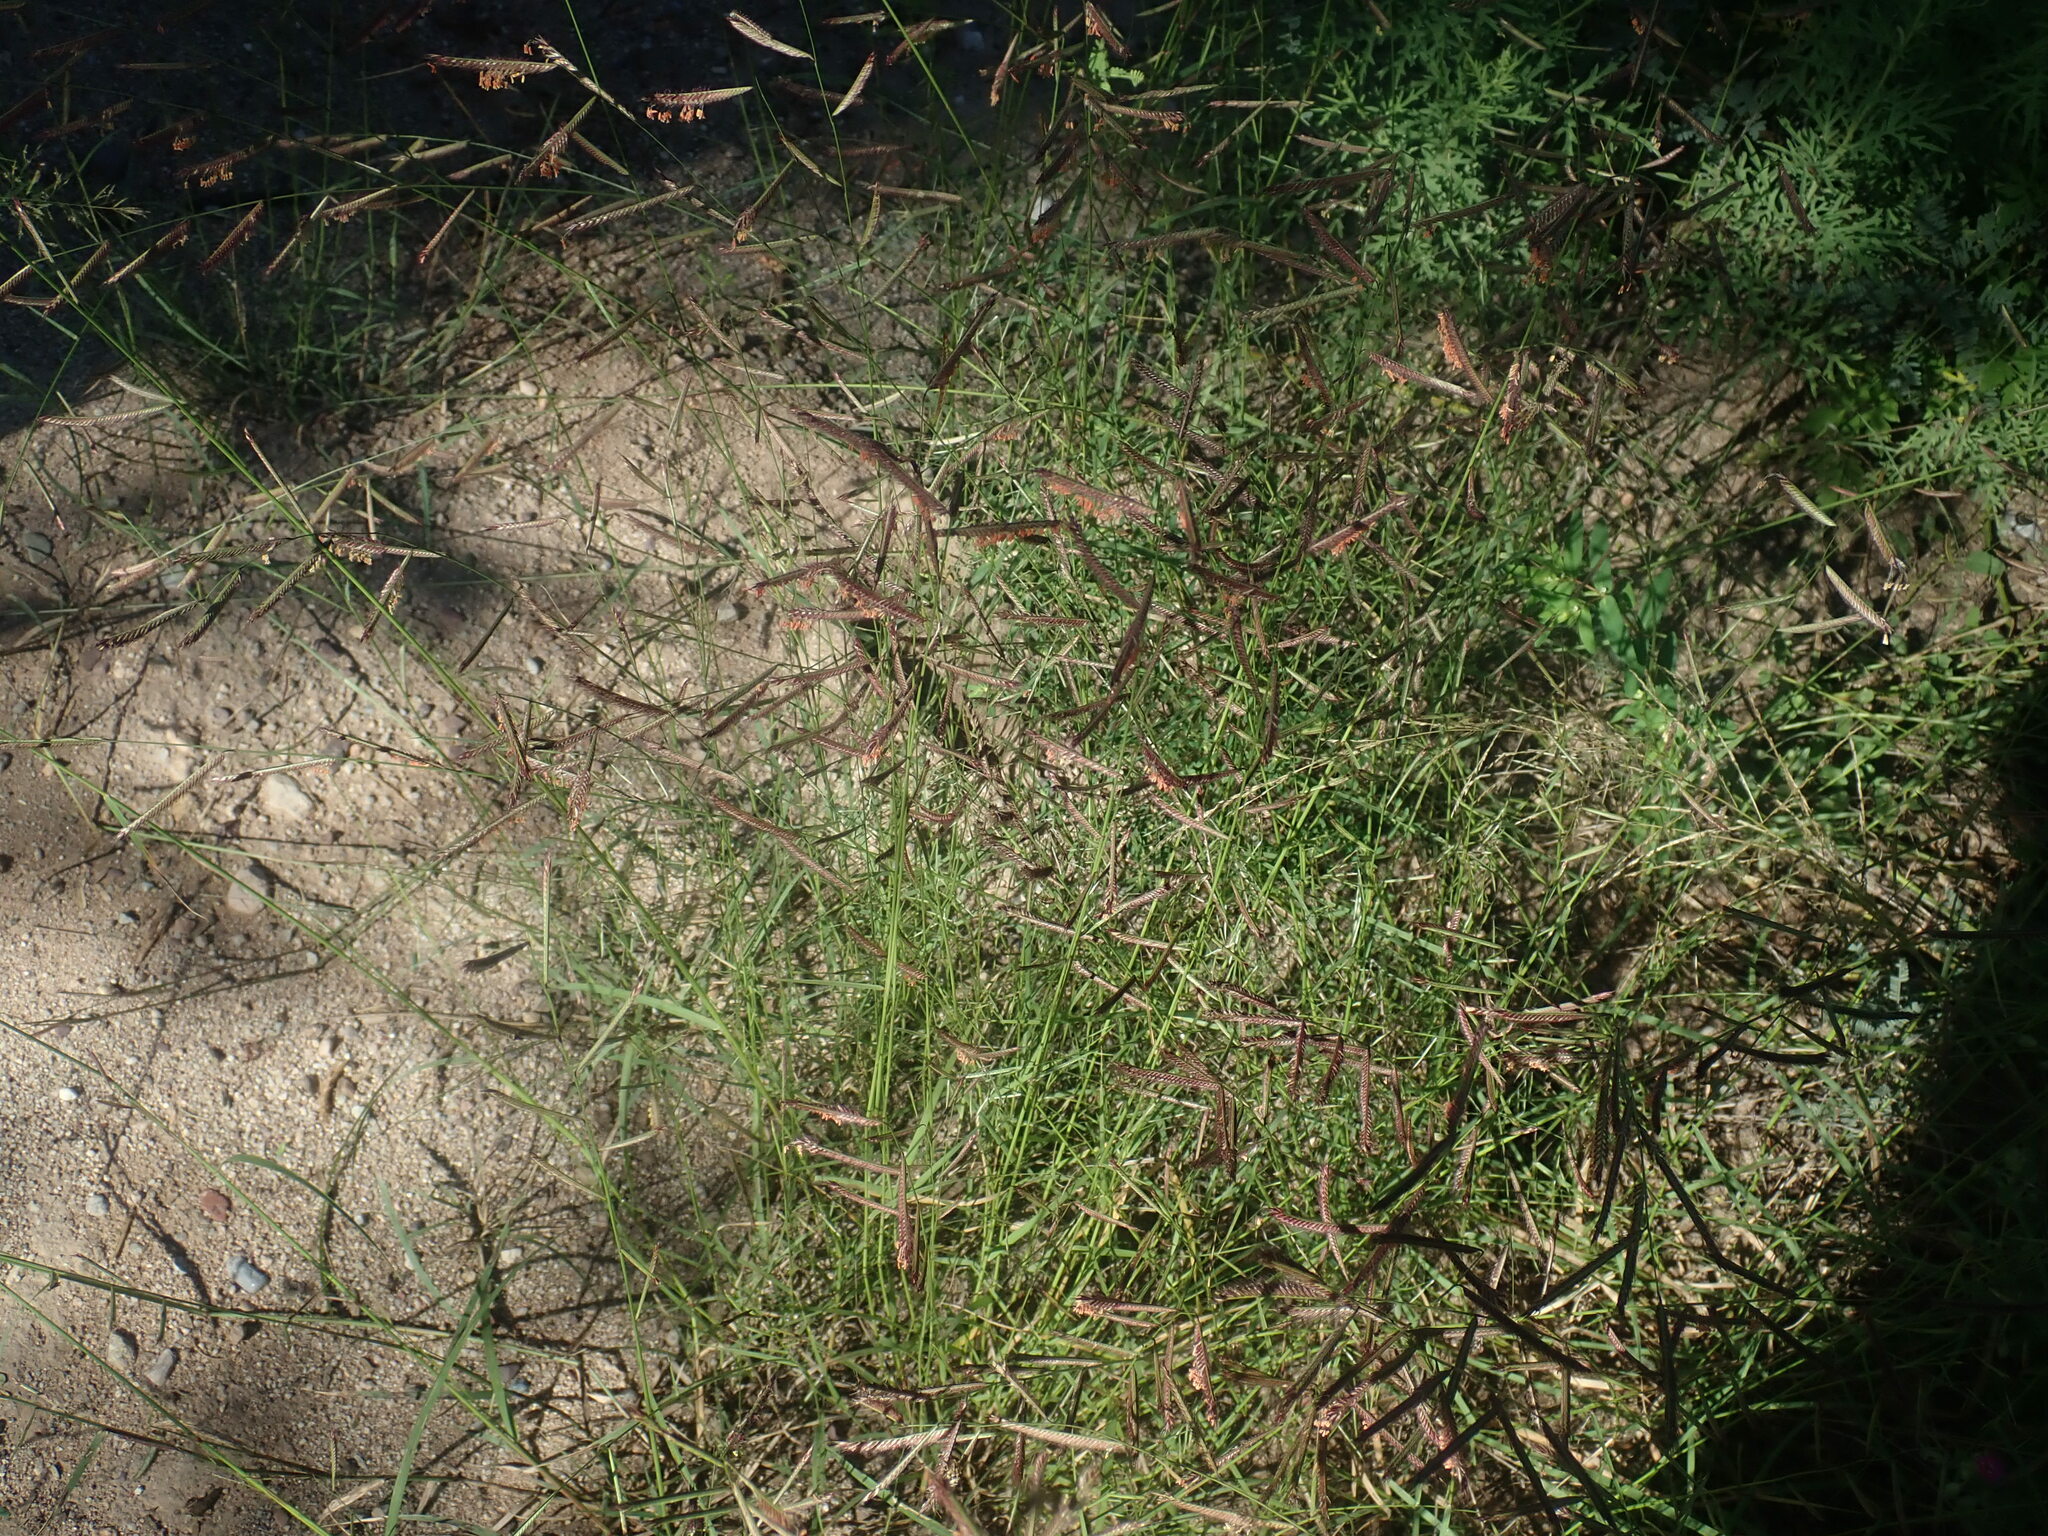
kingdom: Plantae
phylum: Tracheophyta
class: Liliopsida
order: Poales
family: Poaceae
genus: Bouteloua
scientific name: Bouteloua barbata
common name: Six-weeks grama
